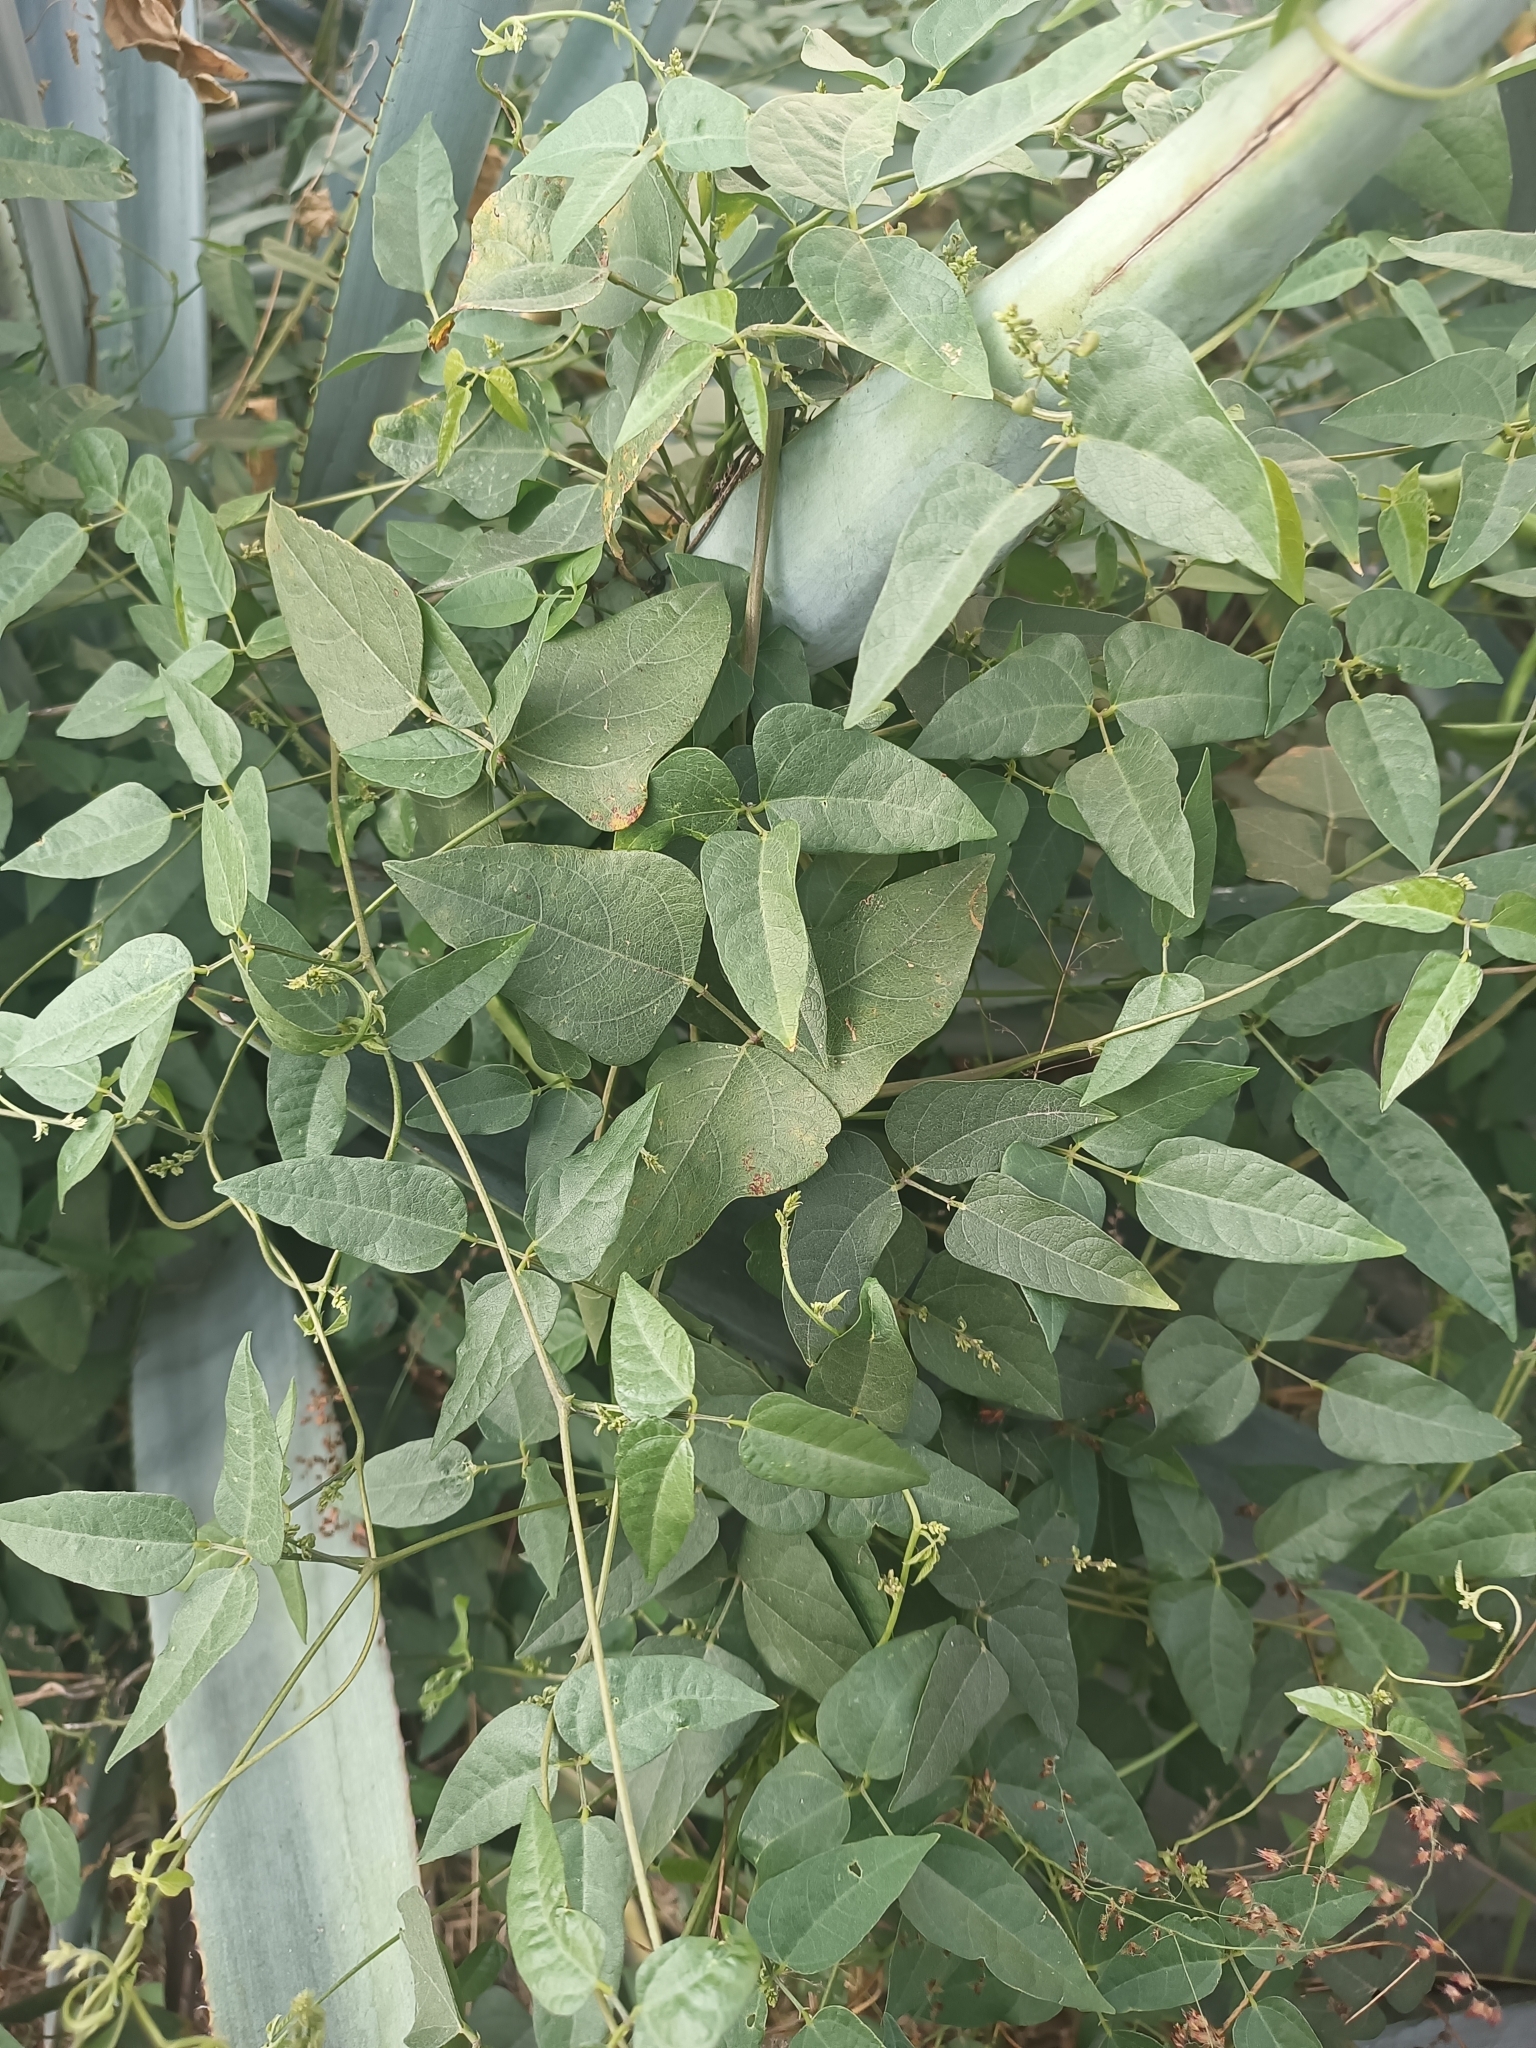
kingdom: Plantae
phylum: Tracheophyta
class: Magnoliopsida
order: Fabales
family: Fabaceae
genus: Phaseolus
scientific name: Phaseolus lunatus
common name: Sieva bean
